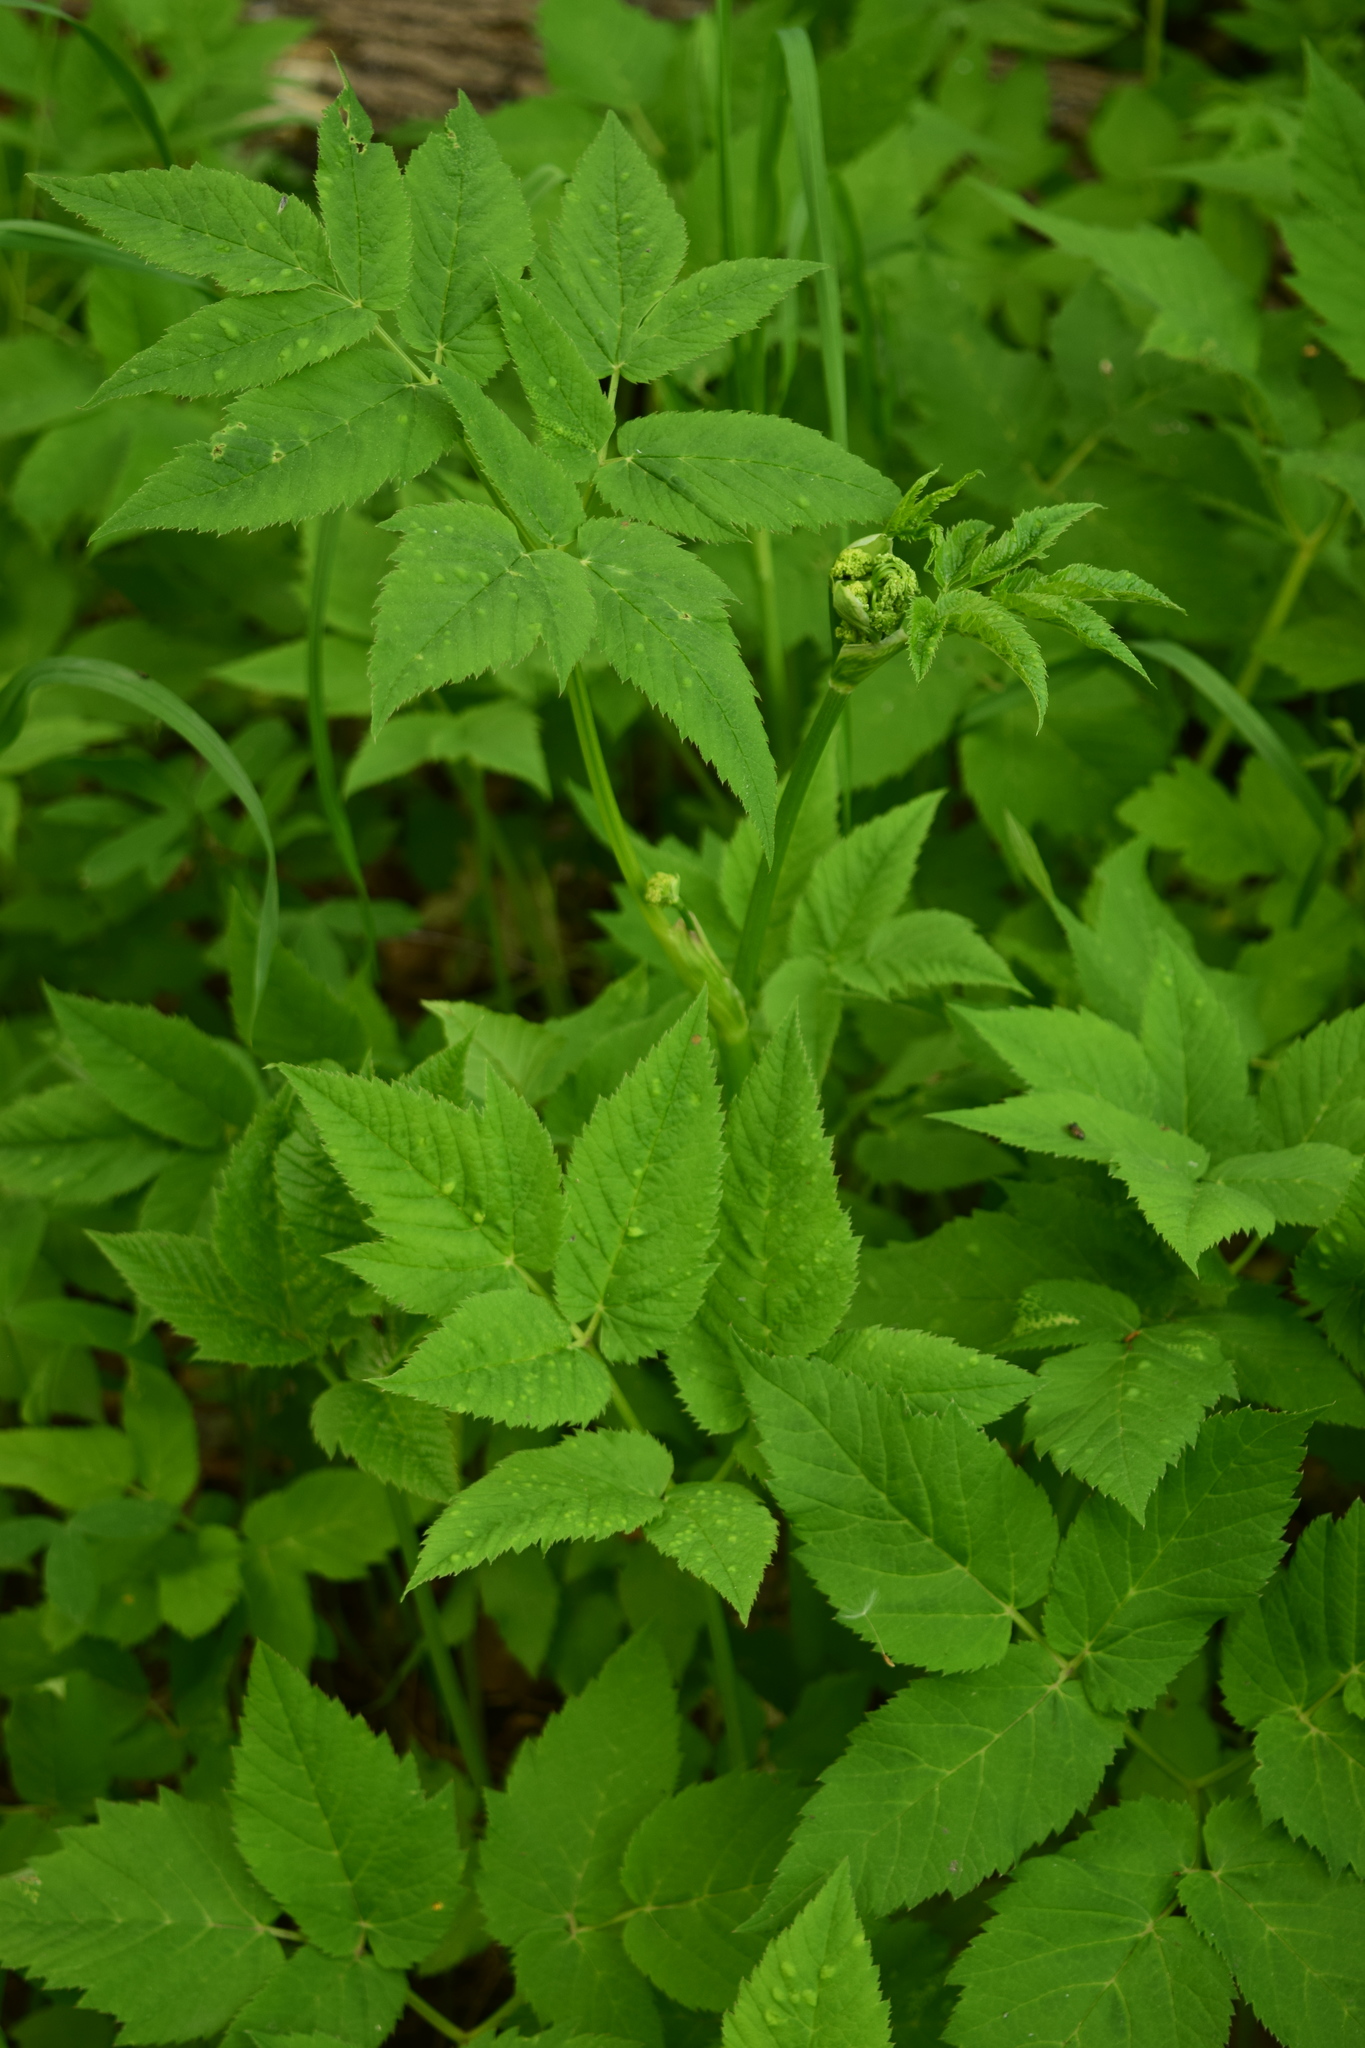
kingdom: Plantae
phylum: Tracheophyta
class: Magnoliopsida
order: Apiales
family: Apiaceae
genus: Aegopodium
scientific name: Aegopodium podagraria
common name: Ground-elder
